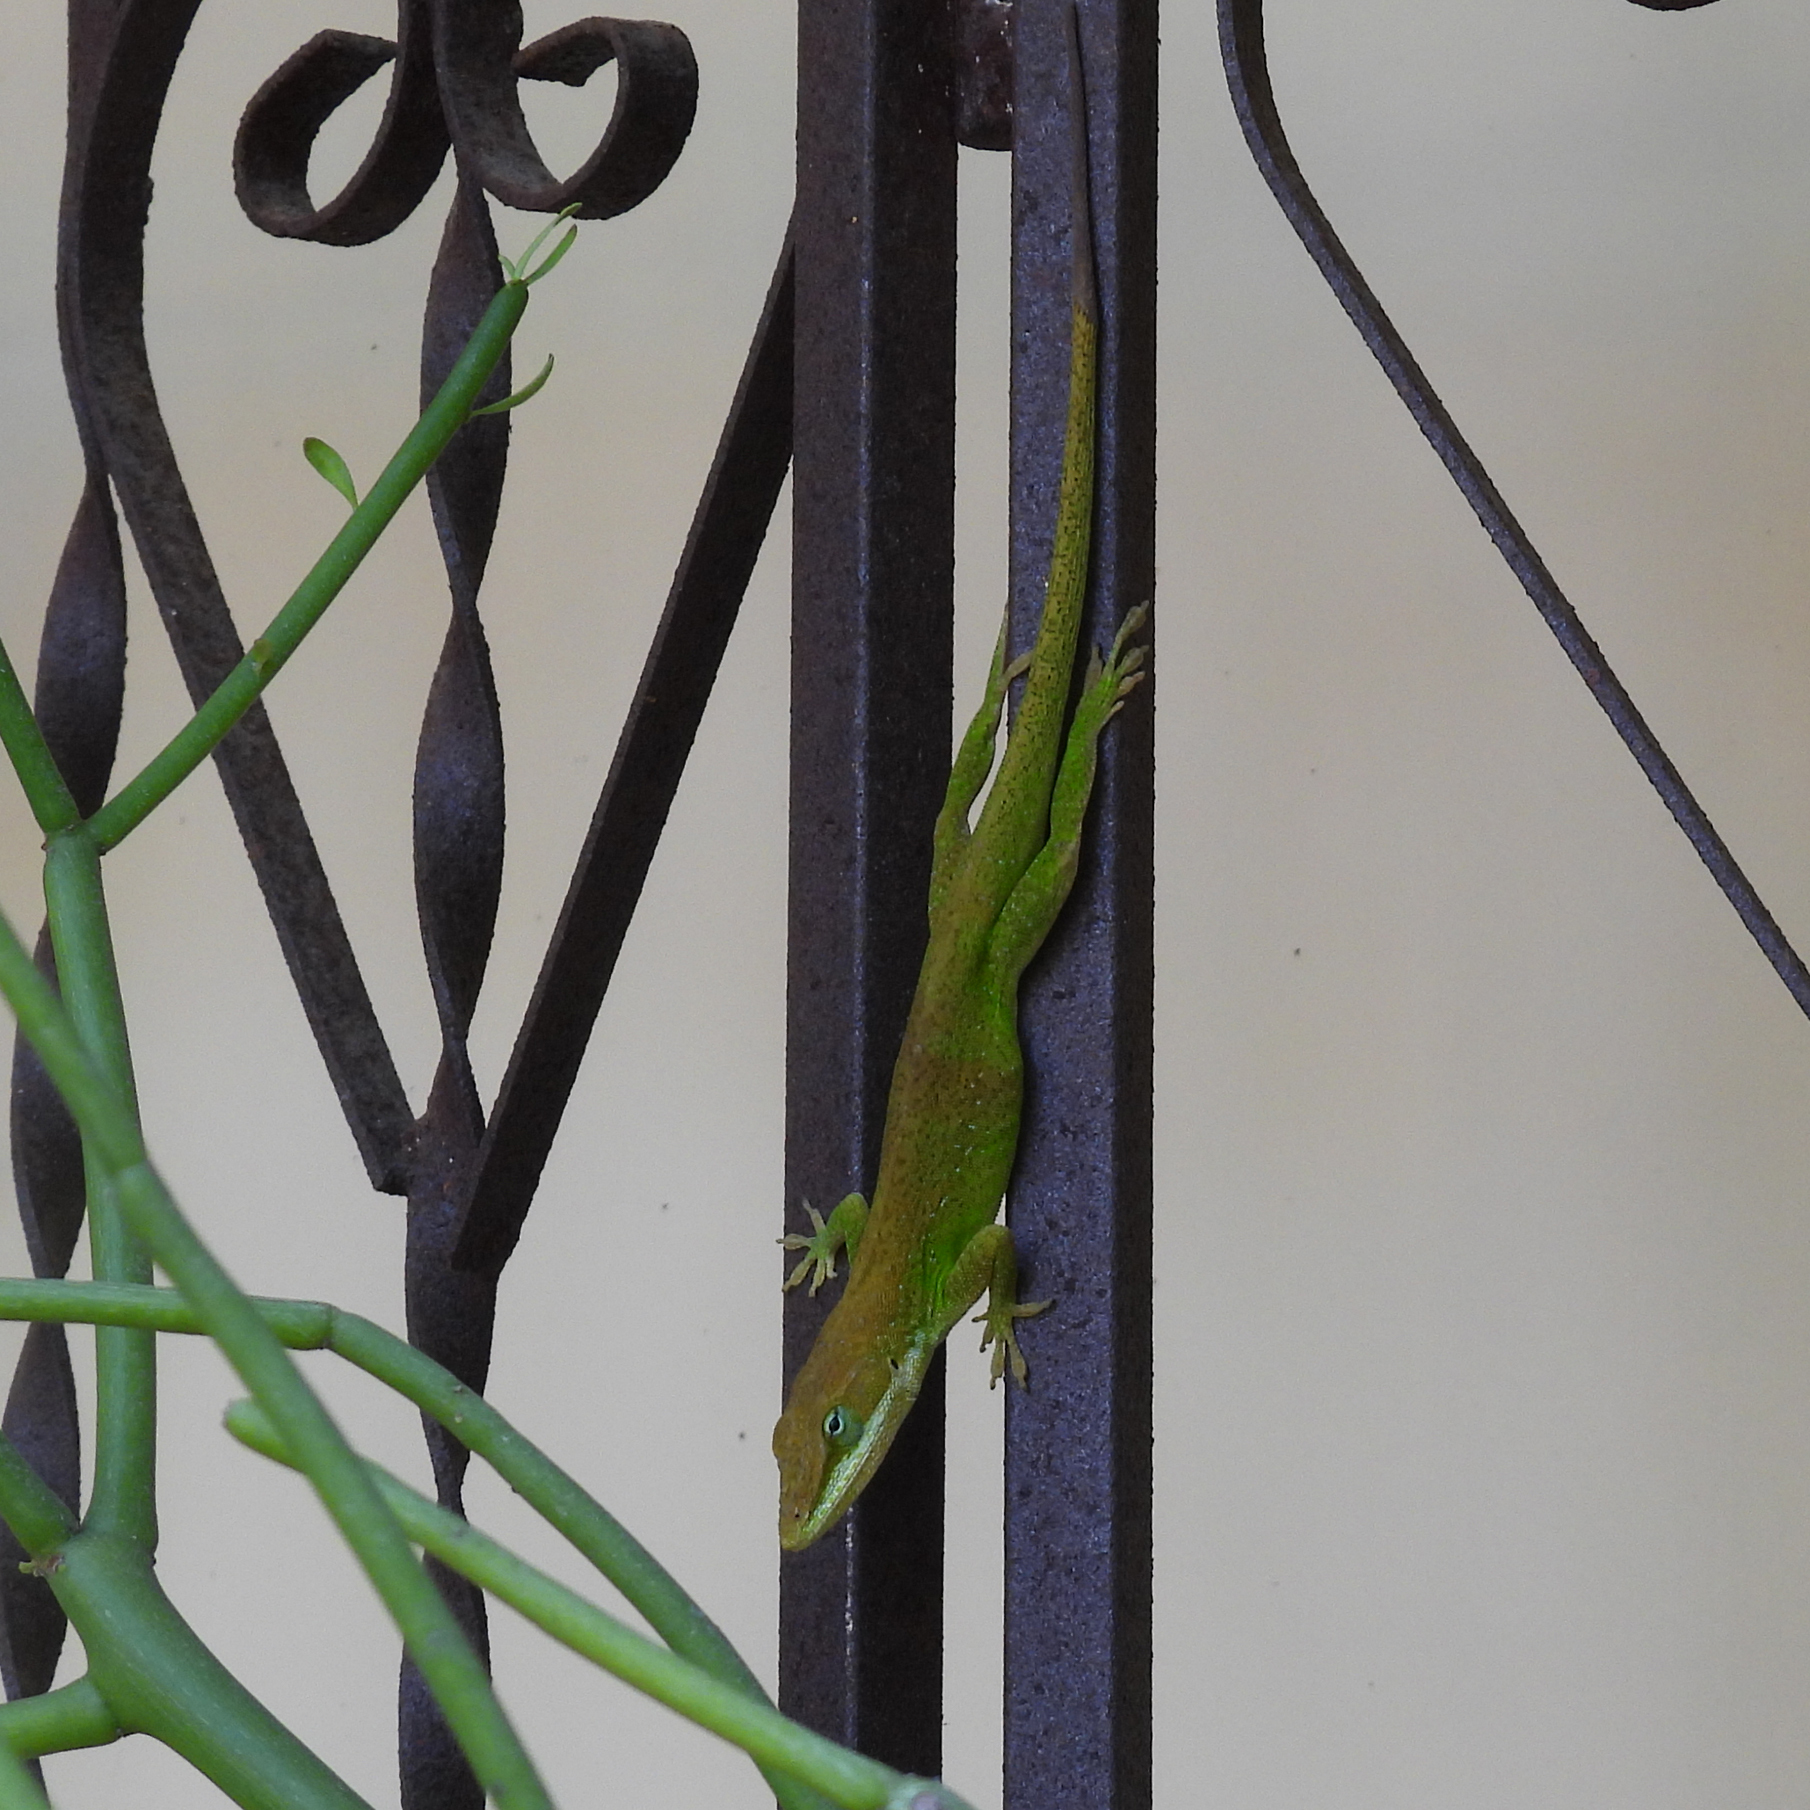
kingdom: Animalia
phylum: Chordata
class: Squamata
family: Dactyloidae
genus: Anolis
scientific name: Anolis carolinensis
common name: Green anole
